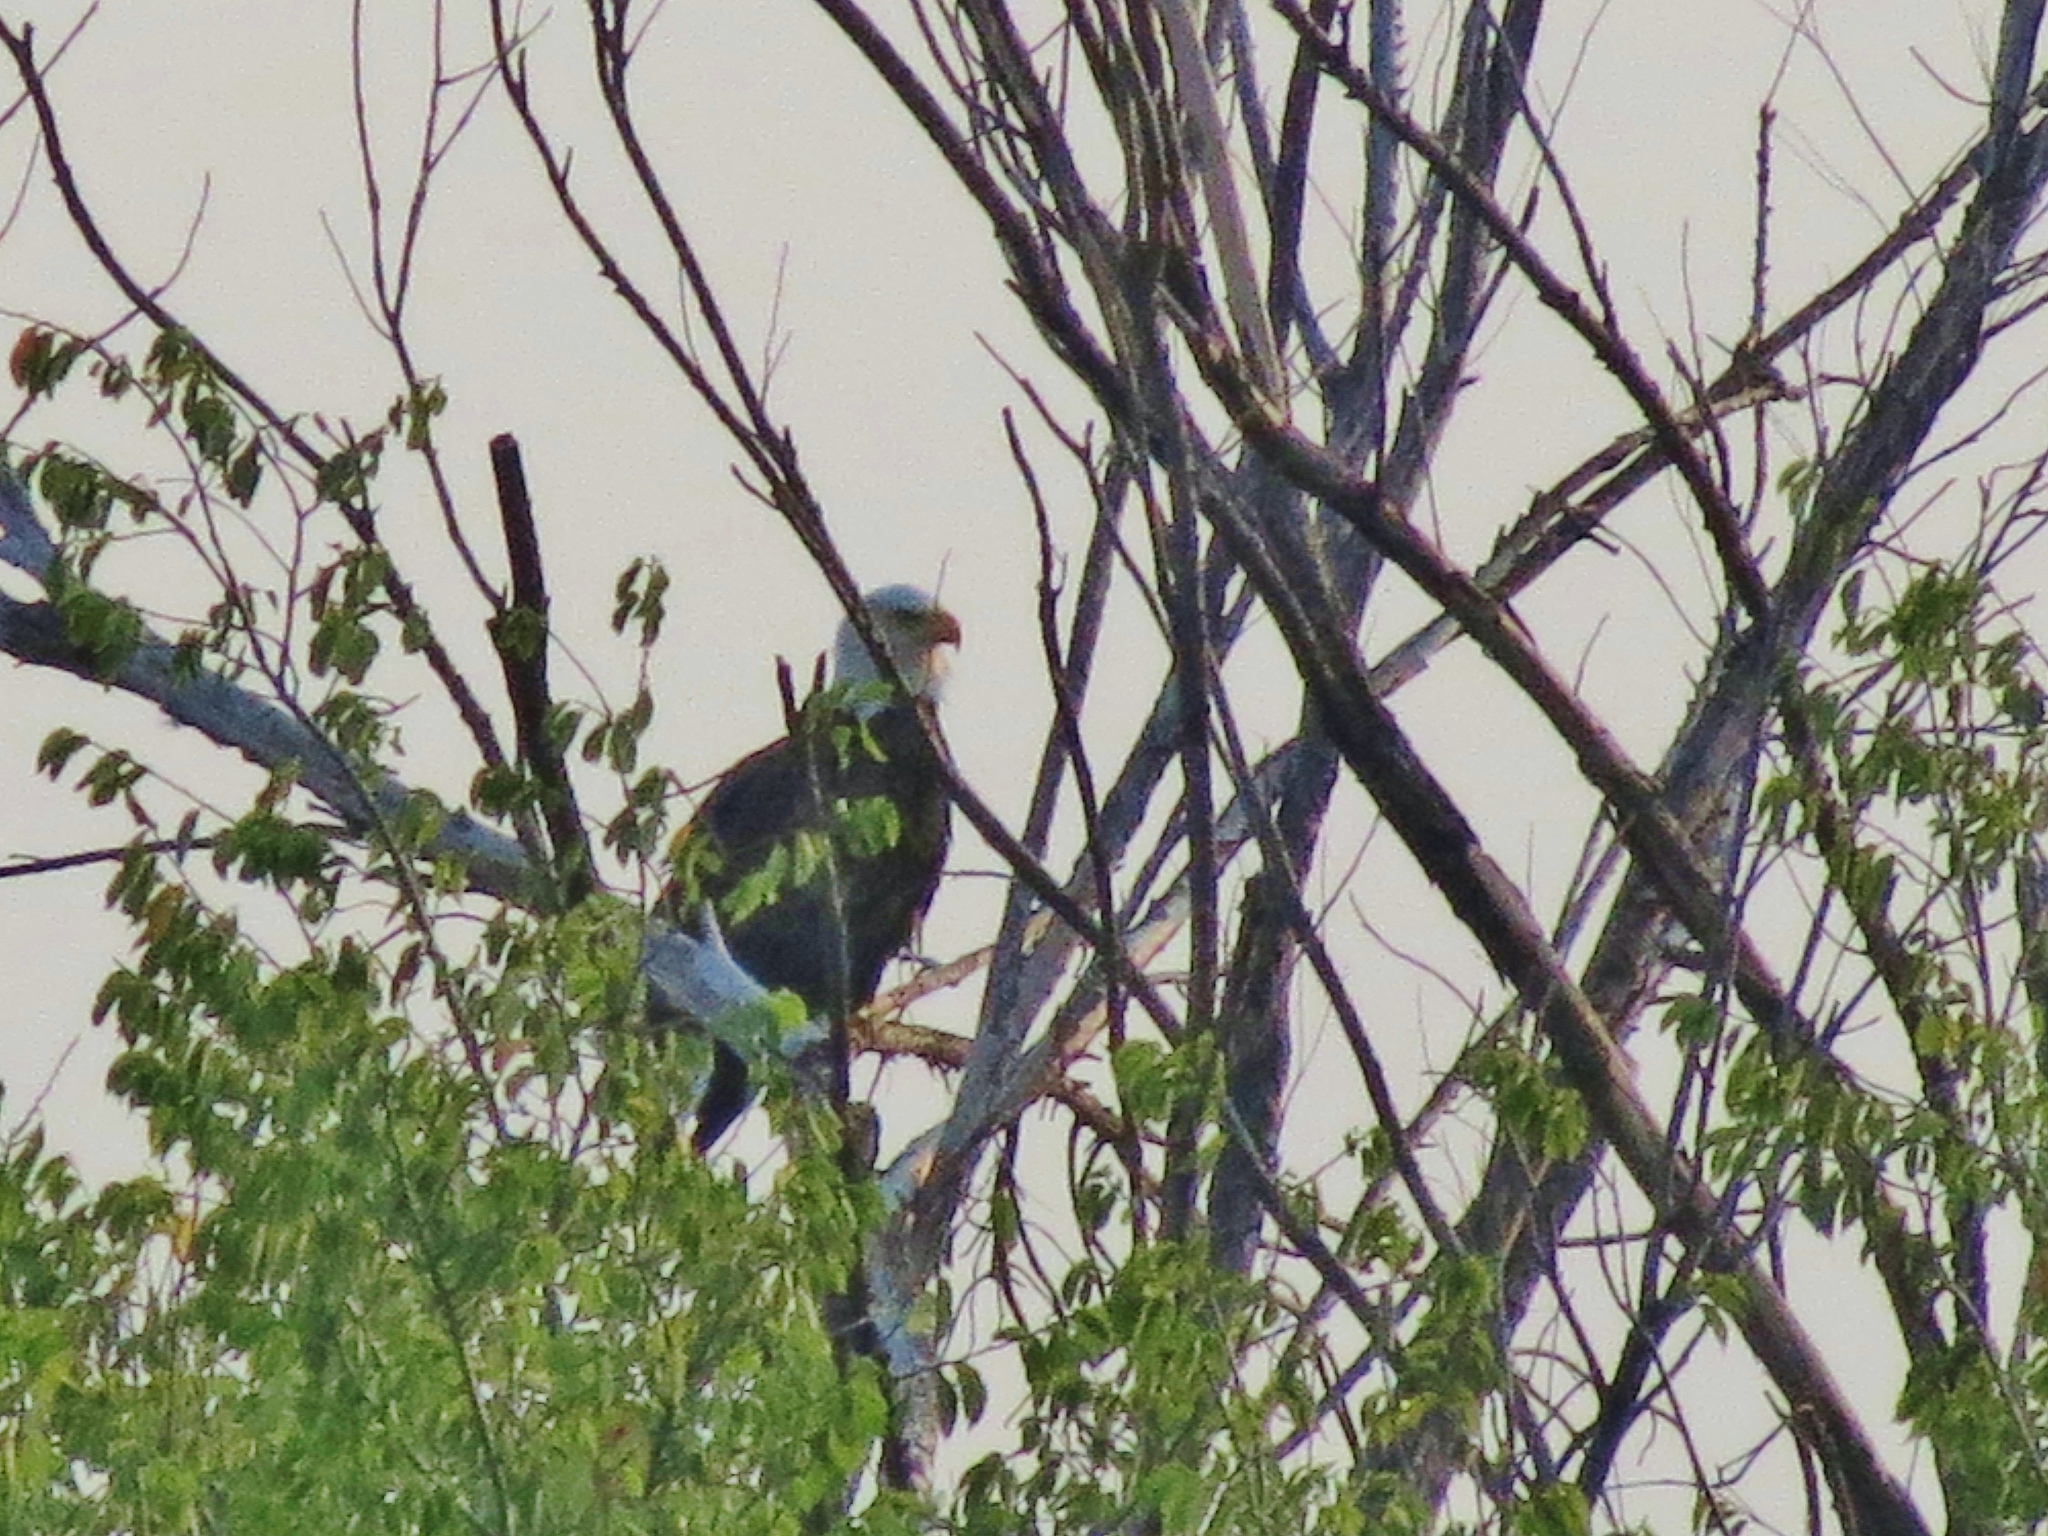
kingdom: Animalia
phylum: Chordata
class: Aves
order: Accipitriformes
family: Accipitridae
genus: Haliaeetus
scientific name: Haliaeetus leucocephalus
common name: Bald eagle
